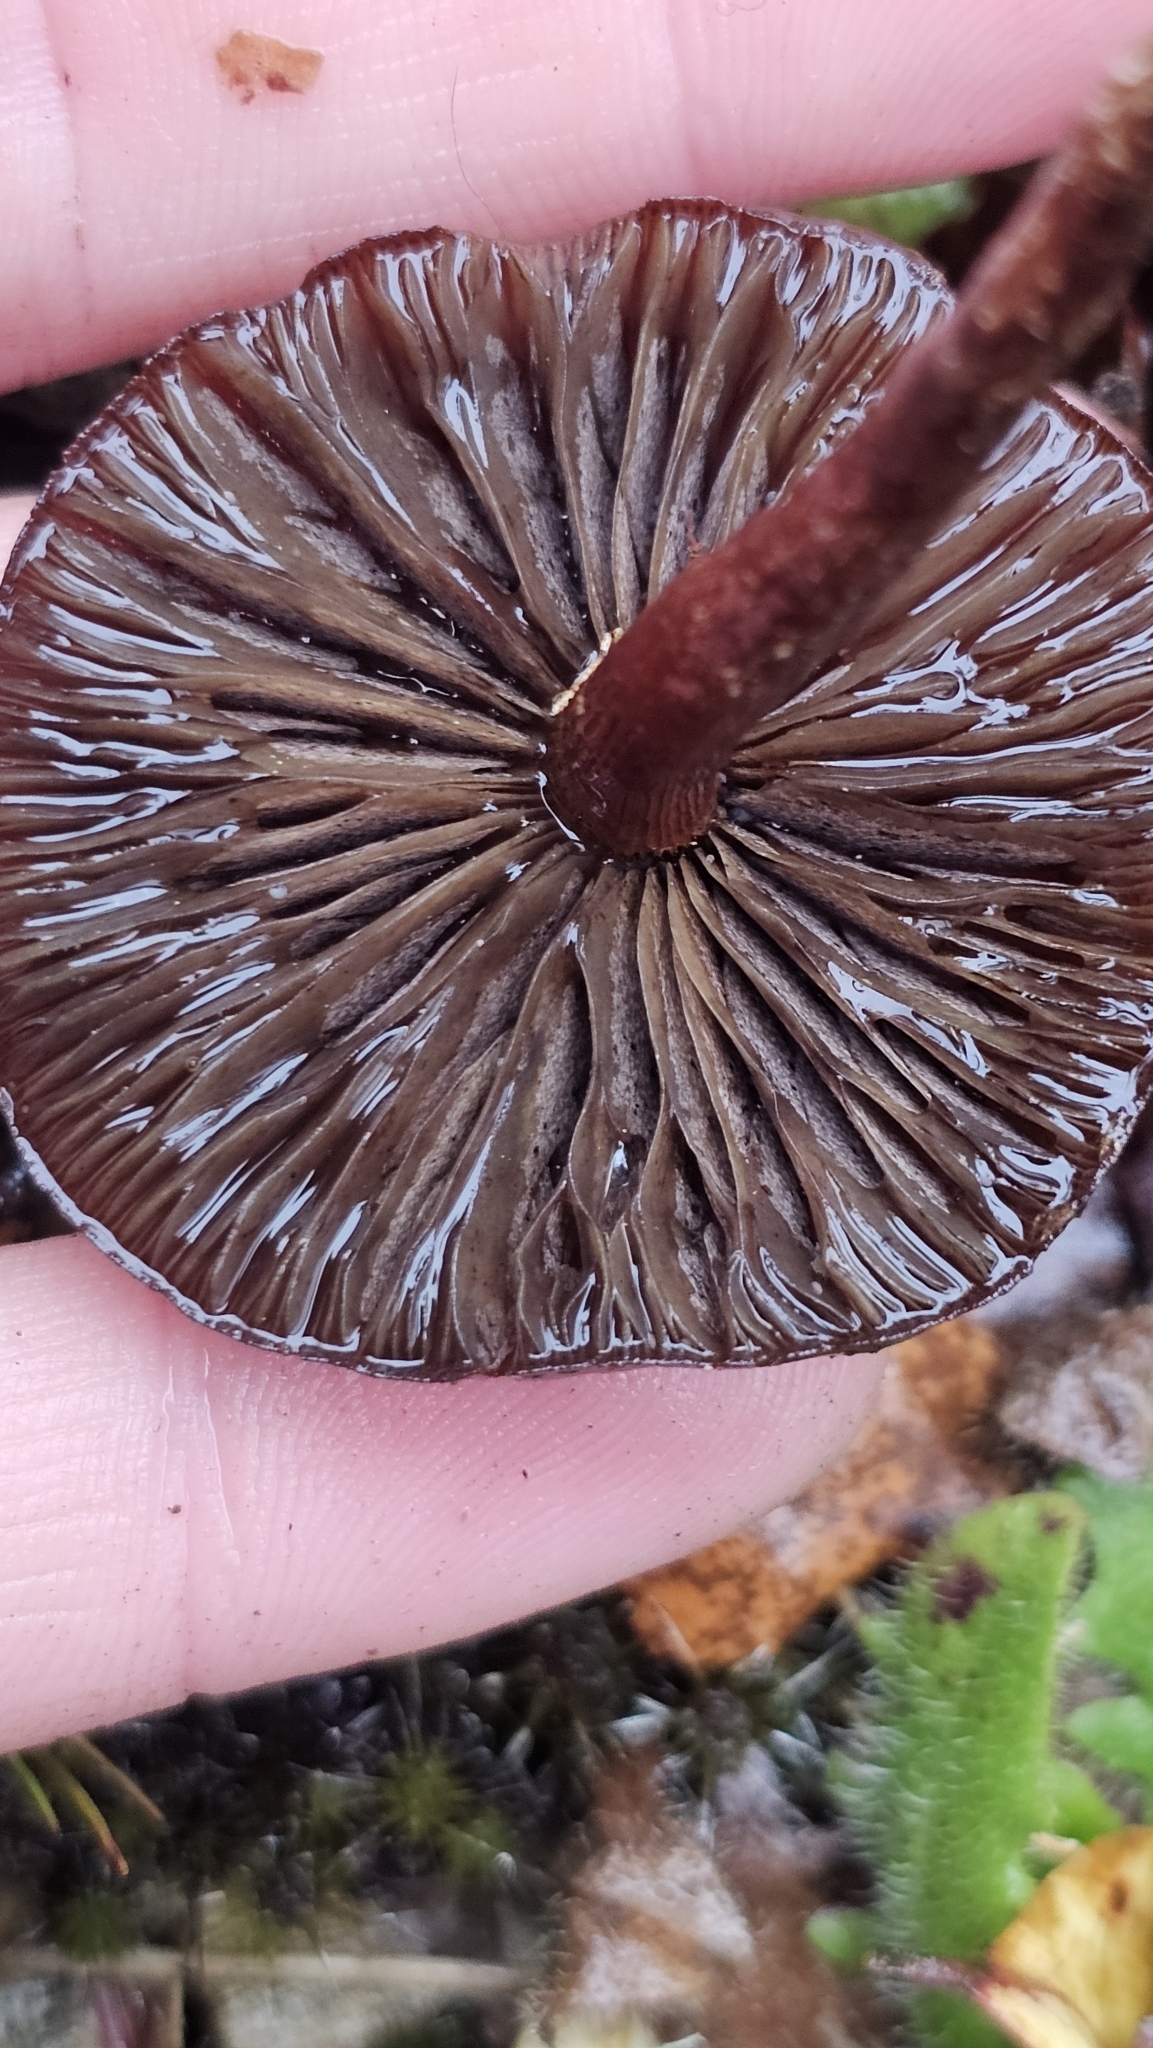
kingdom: Fungi
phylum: Basidiomycota
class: Agaricomycetes
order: Agaricales
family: Strophariaceae
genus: Leratiomyces
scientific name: Leratiomyces ceres
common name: Redlead roundhead
